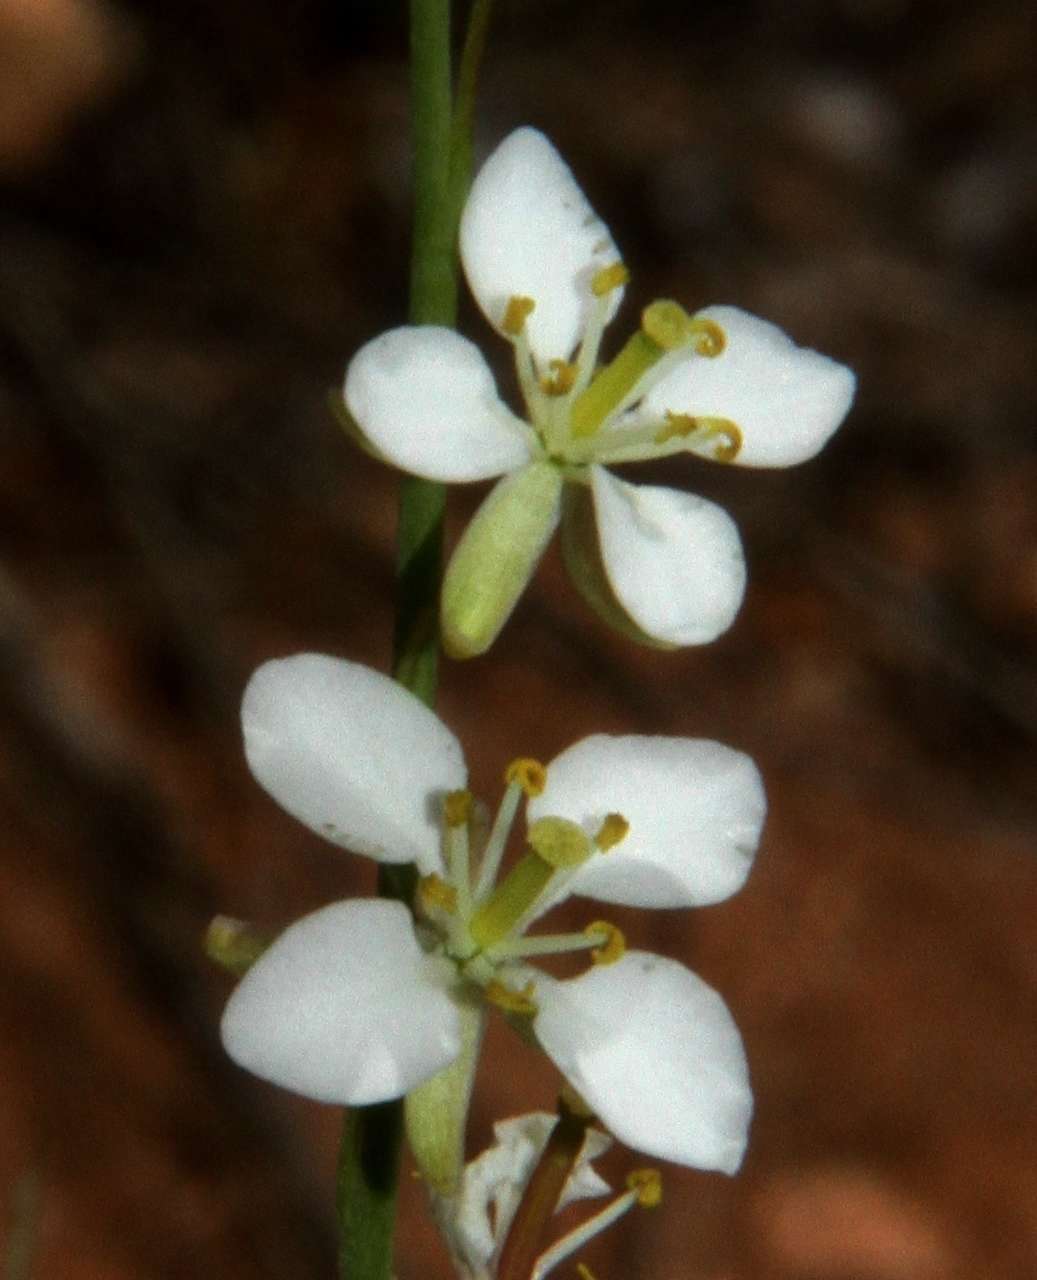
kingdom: Plantae
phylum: Tracheophyta
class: Magnoliopsida
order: Brassicales
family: Brassicaceae
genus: Arabidella
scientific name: Arabidella trisecta
